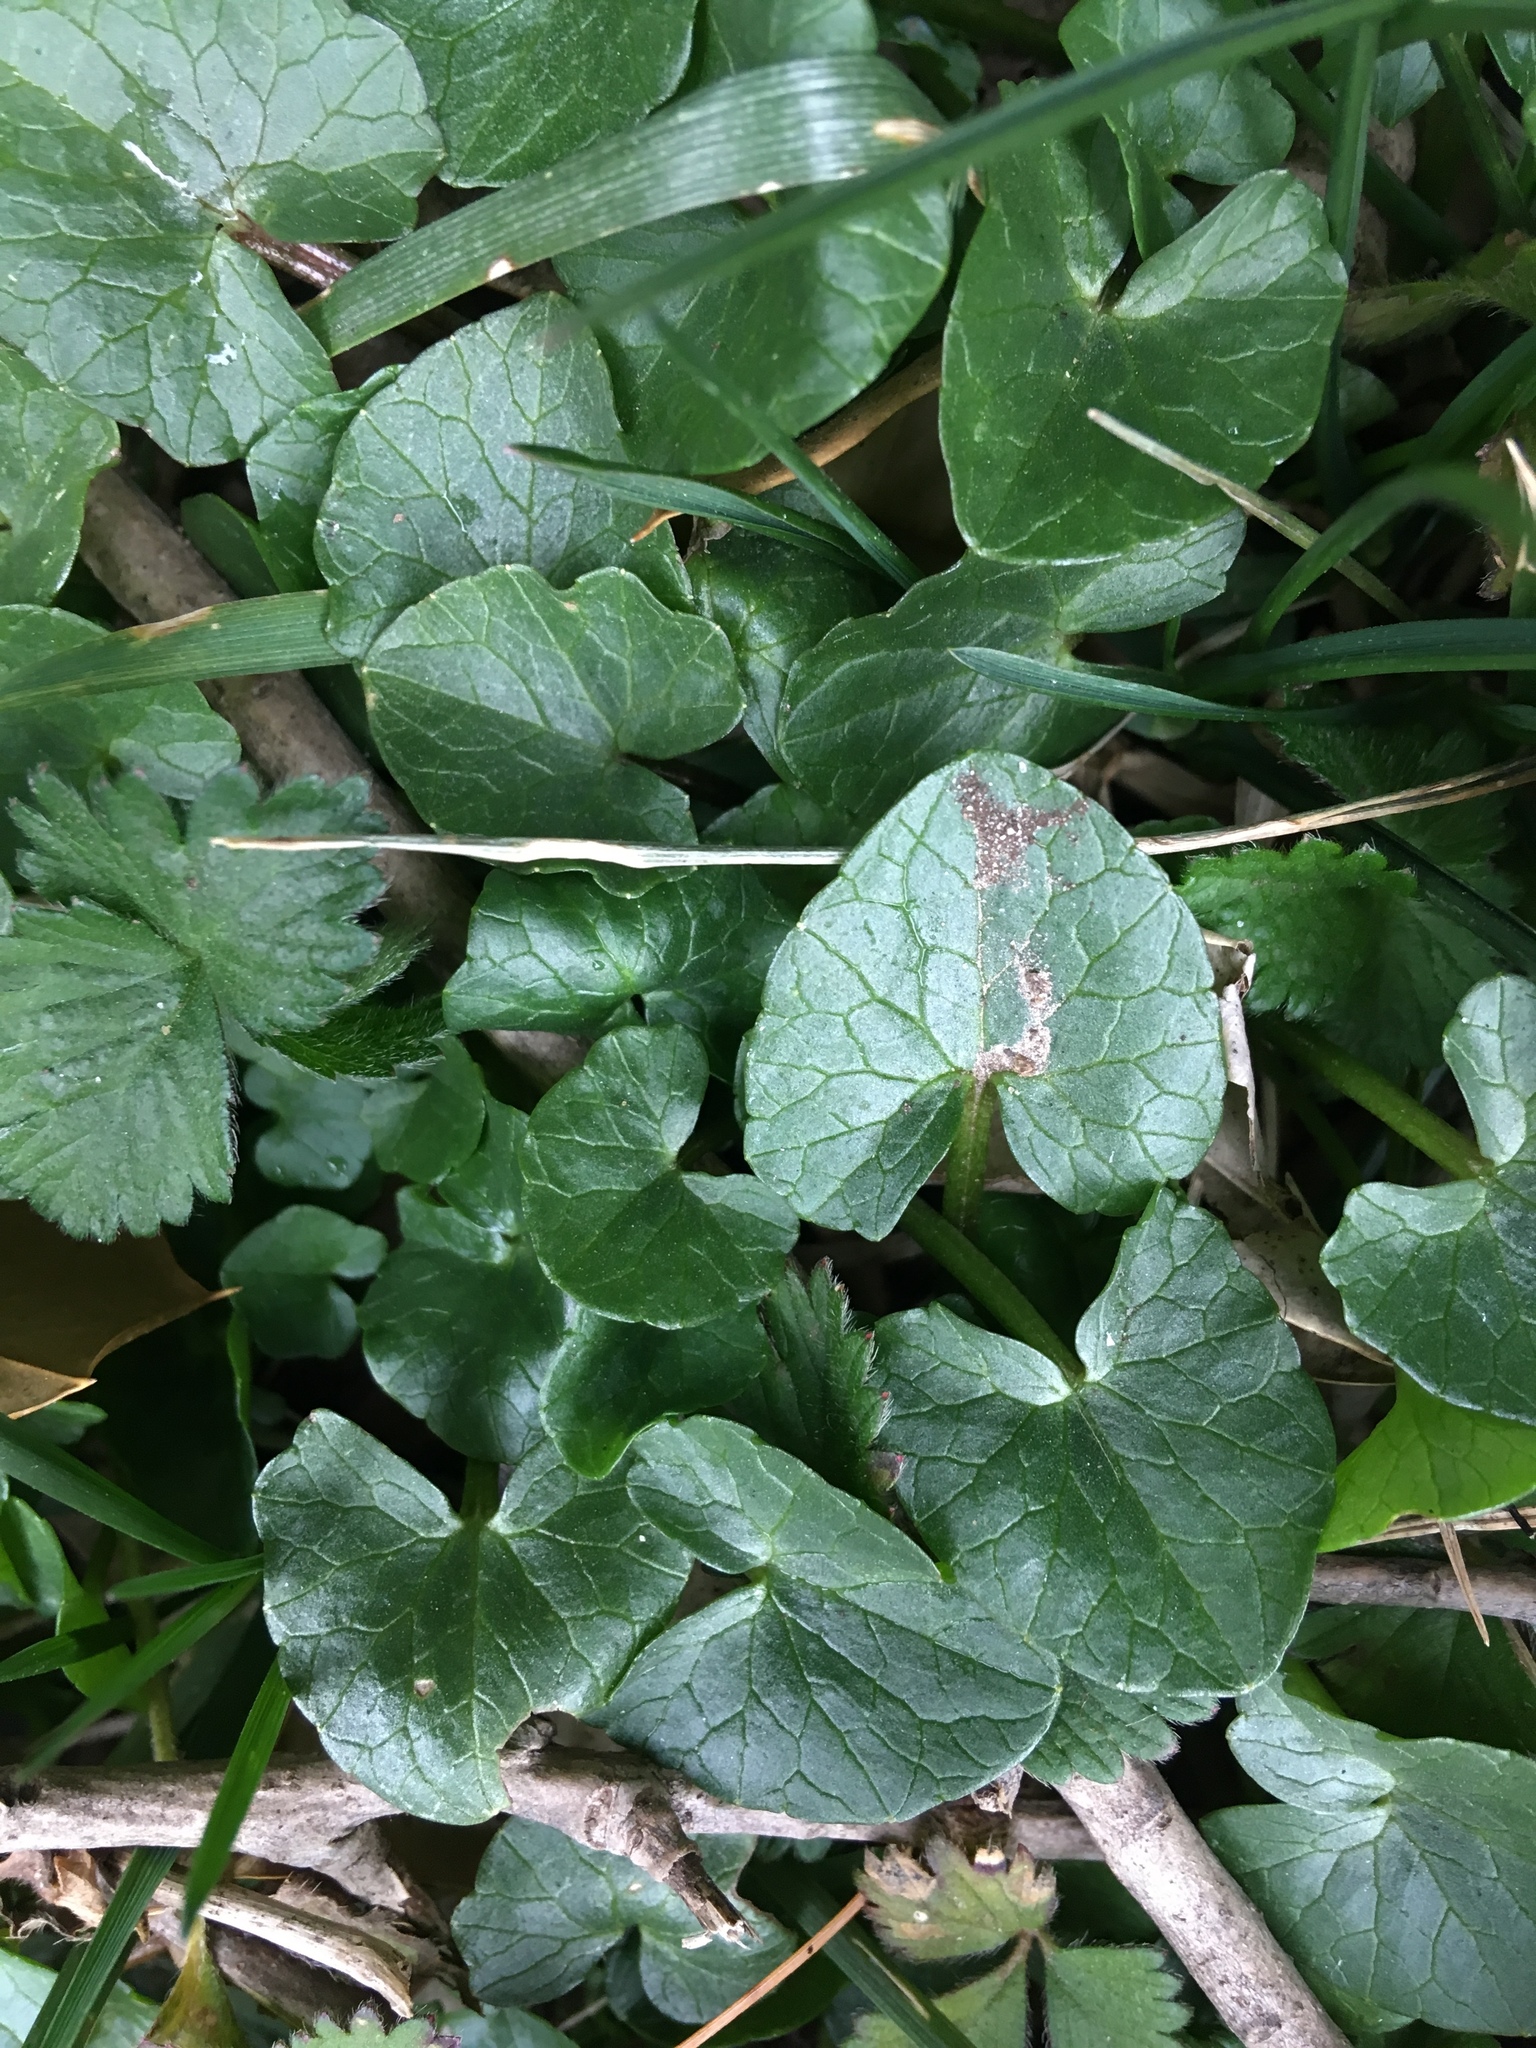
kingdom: Plantae
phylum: Tracheophyta
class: Magnoliopsida
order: Ranunculales
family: Ranunculaceae
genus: Ficaria
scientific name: Ficaria verna
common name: Lesser celandine
